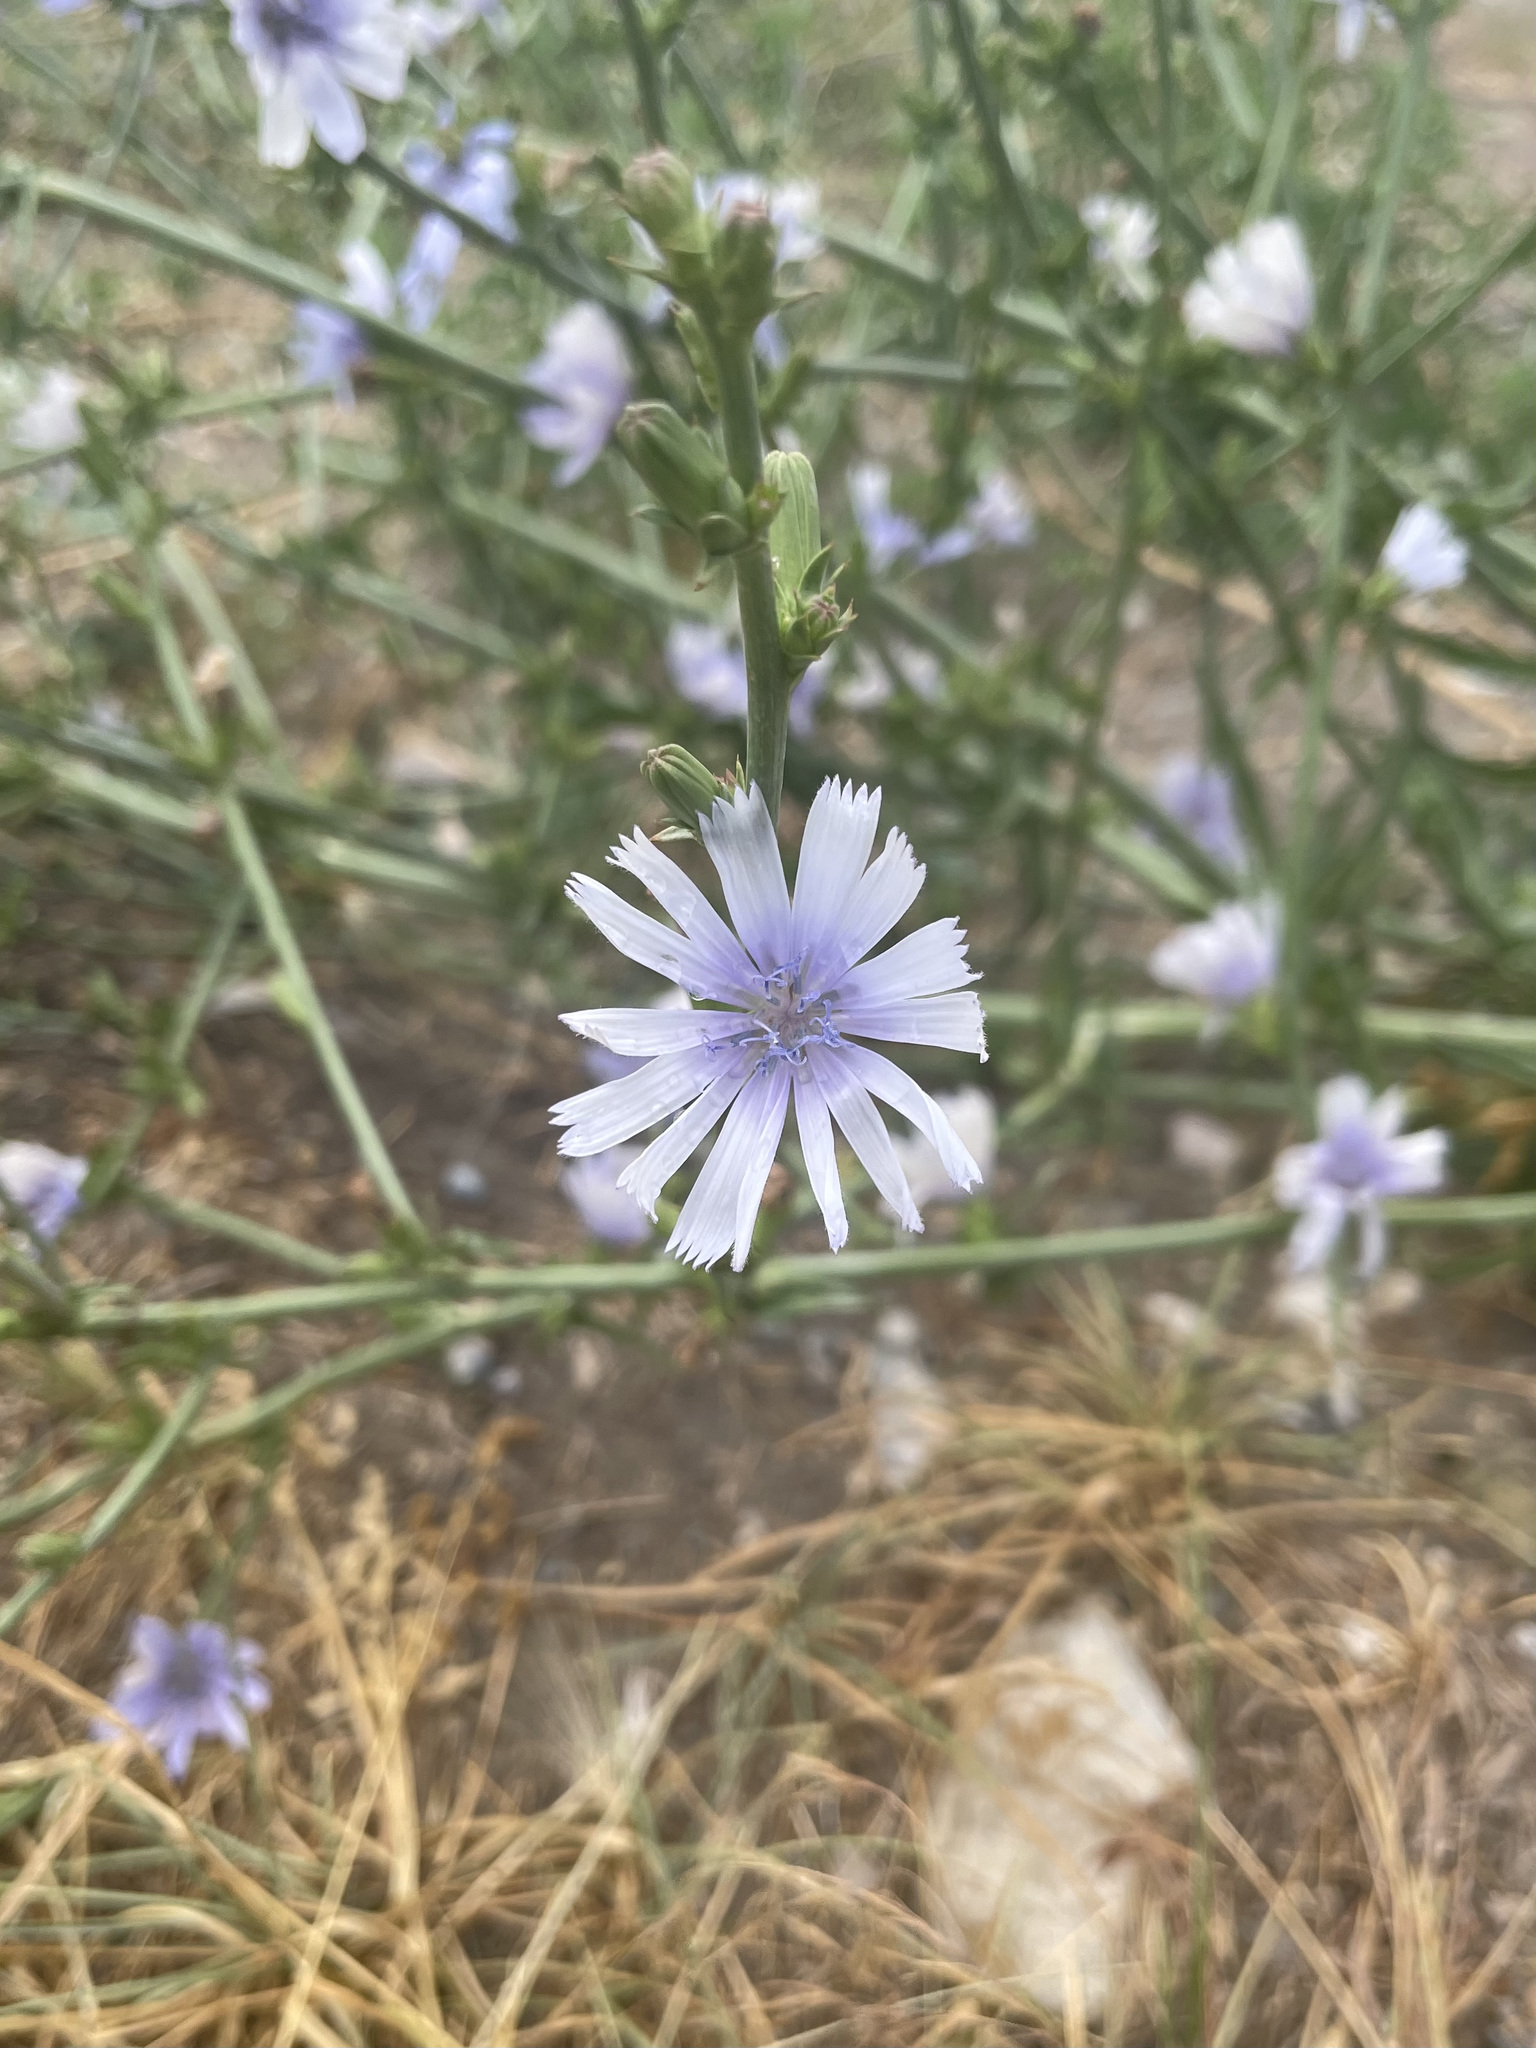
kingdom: Plantae
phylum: Tracheophyta
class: Magnoliopsida
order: Asterales
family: Asteraceae
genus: Cichorium
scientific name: Cichorium intybus
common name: Chicory
